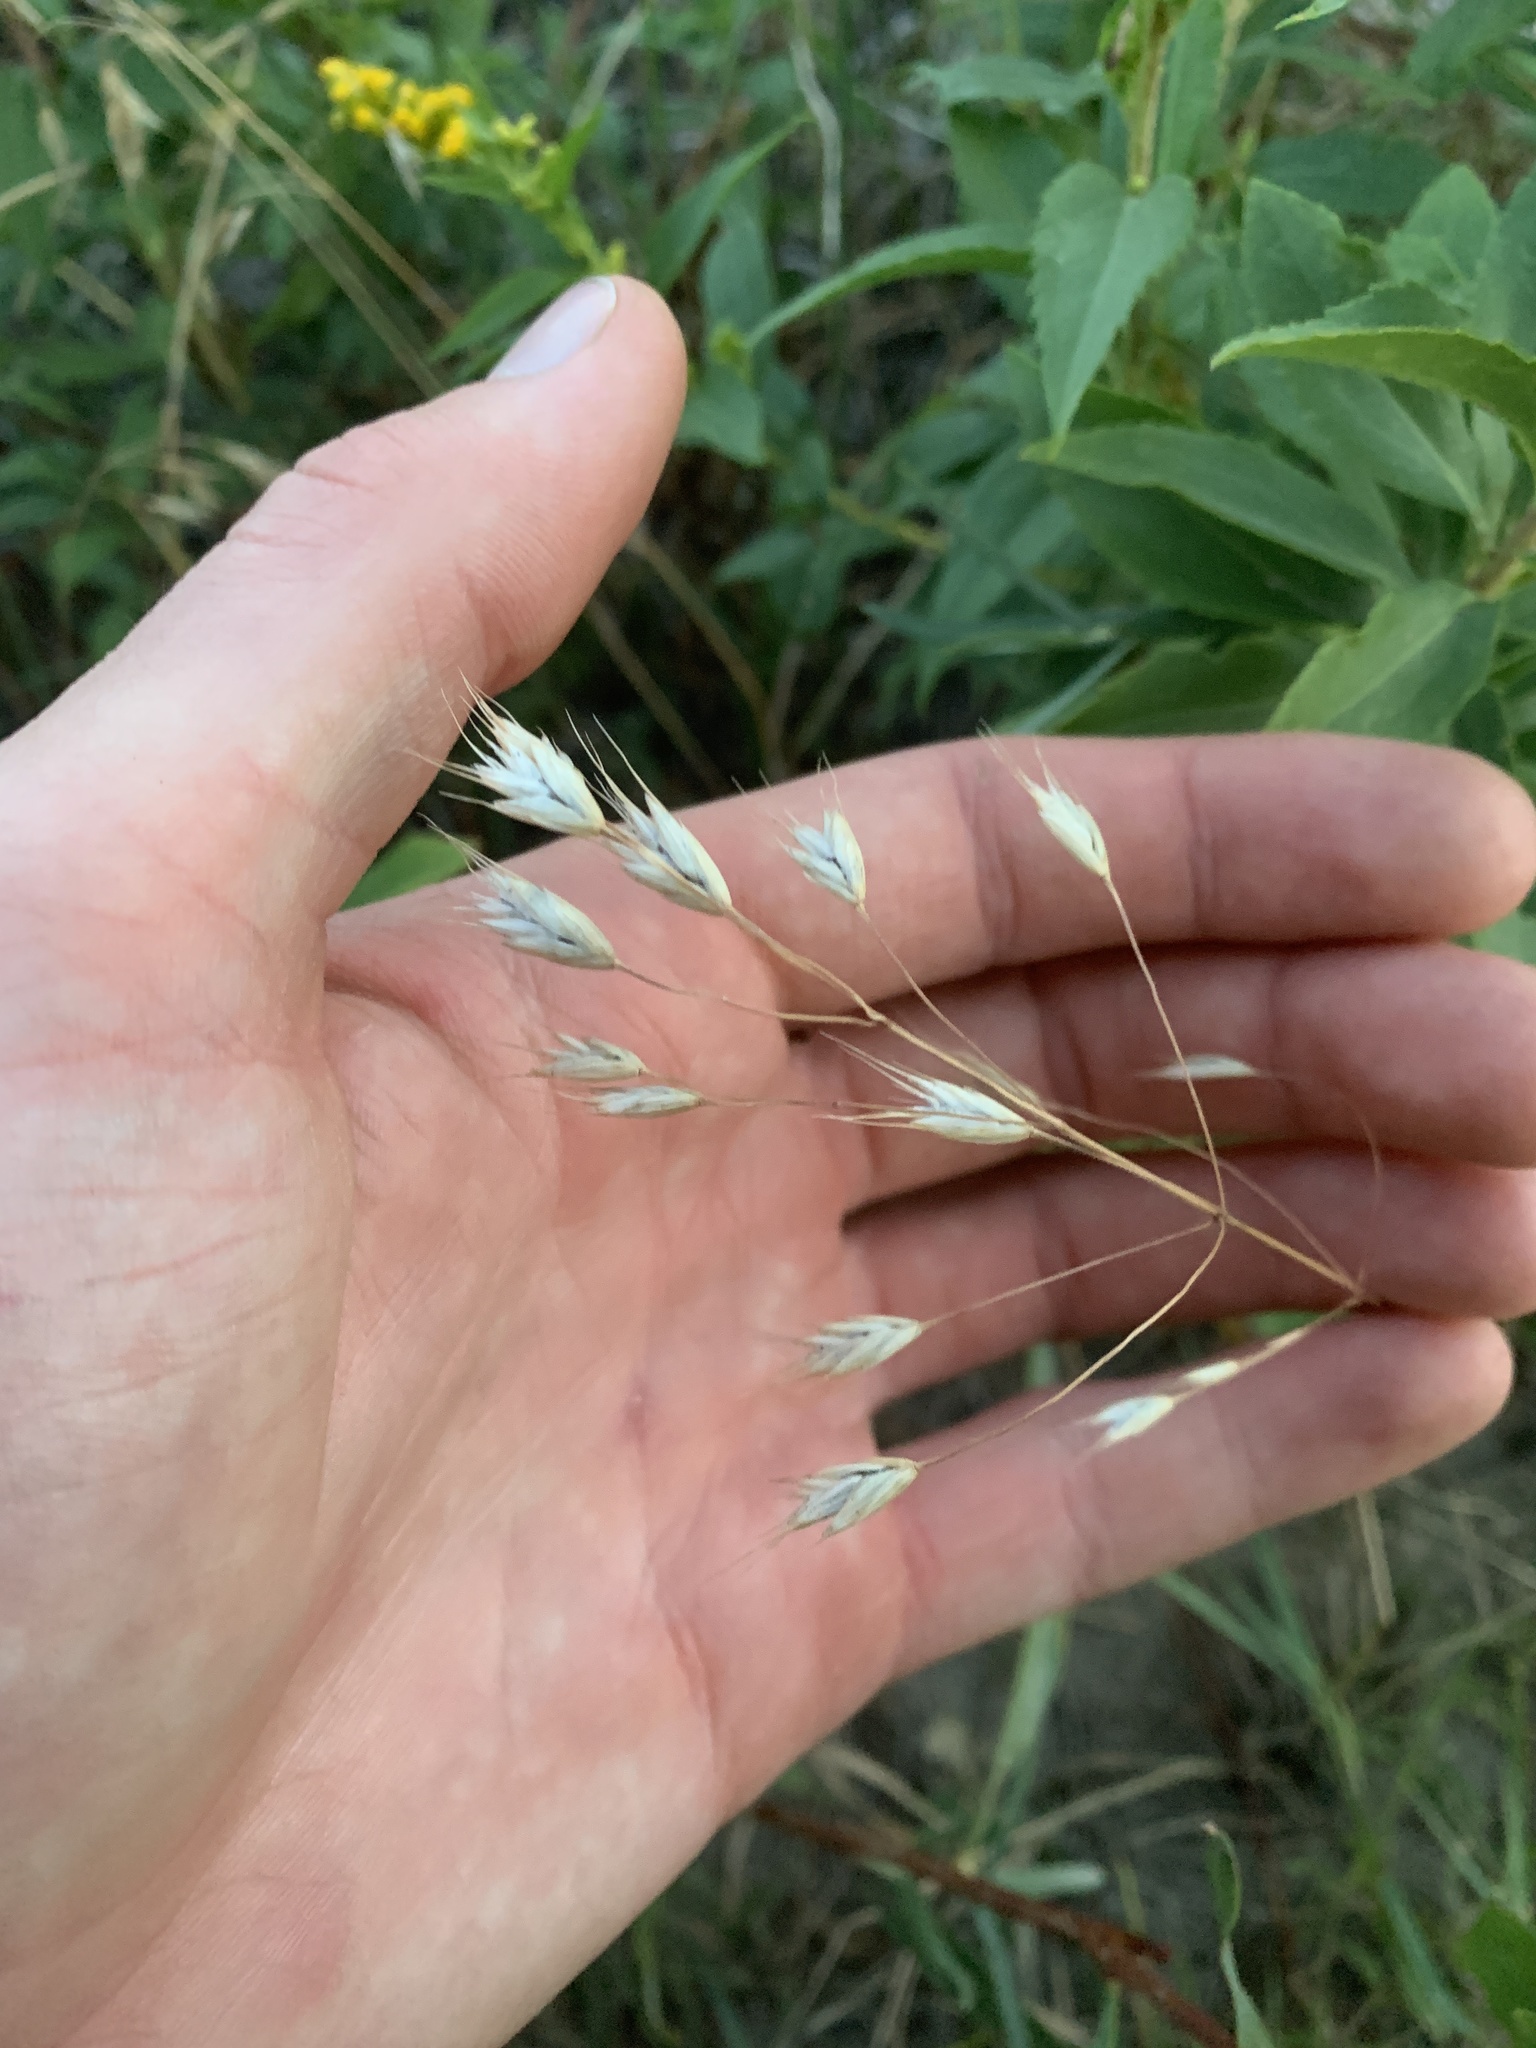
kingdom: Plantae
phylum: Tracheophyta
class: Liliopsida
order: Poales
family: Poaceae
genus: Bromus
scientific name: Bromus japonicus
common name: Japanese brome
